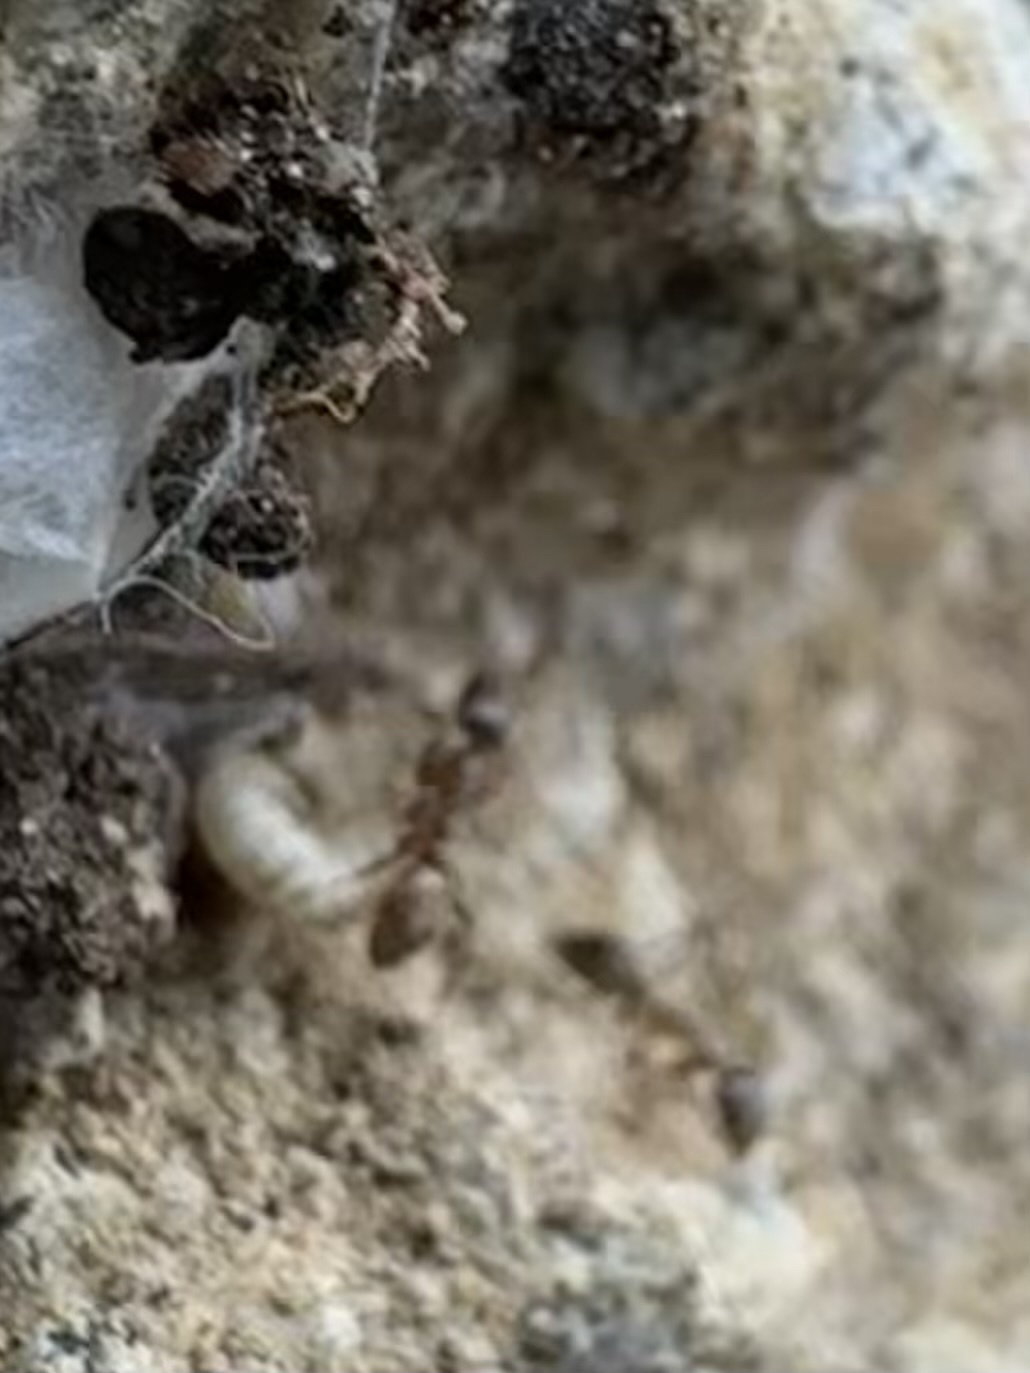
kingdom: Animalia
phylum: Arthropoda
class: Insecta
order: Hymenoptera
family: Formicidae
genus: Linepithema
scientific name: Linepithema humile
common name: Argentine ant
